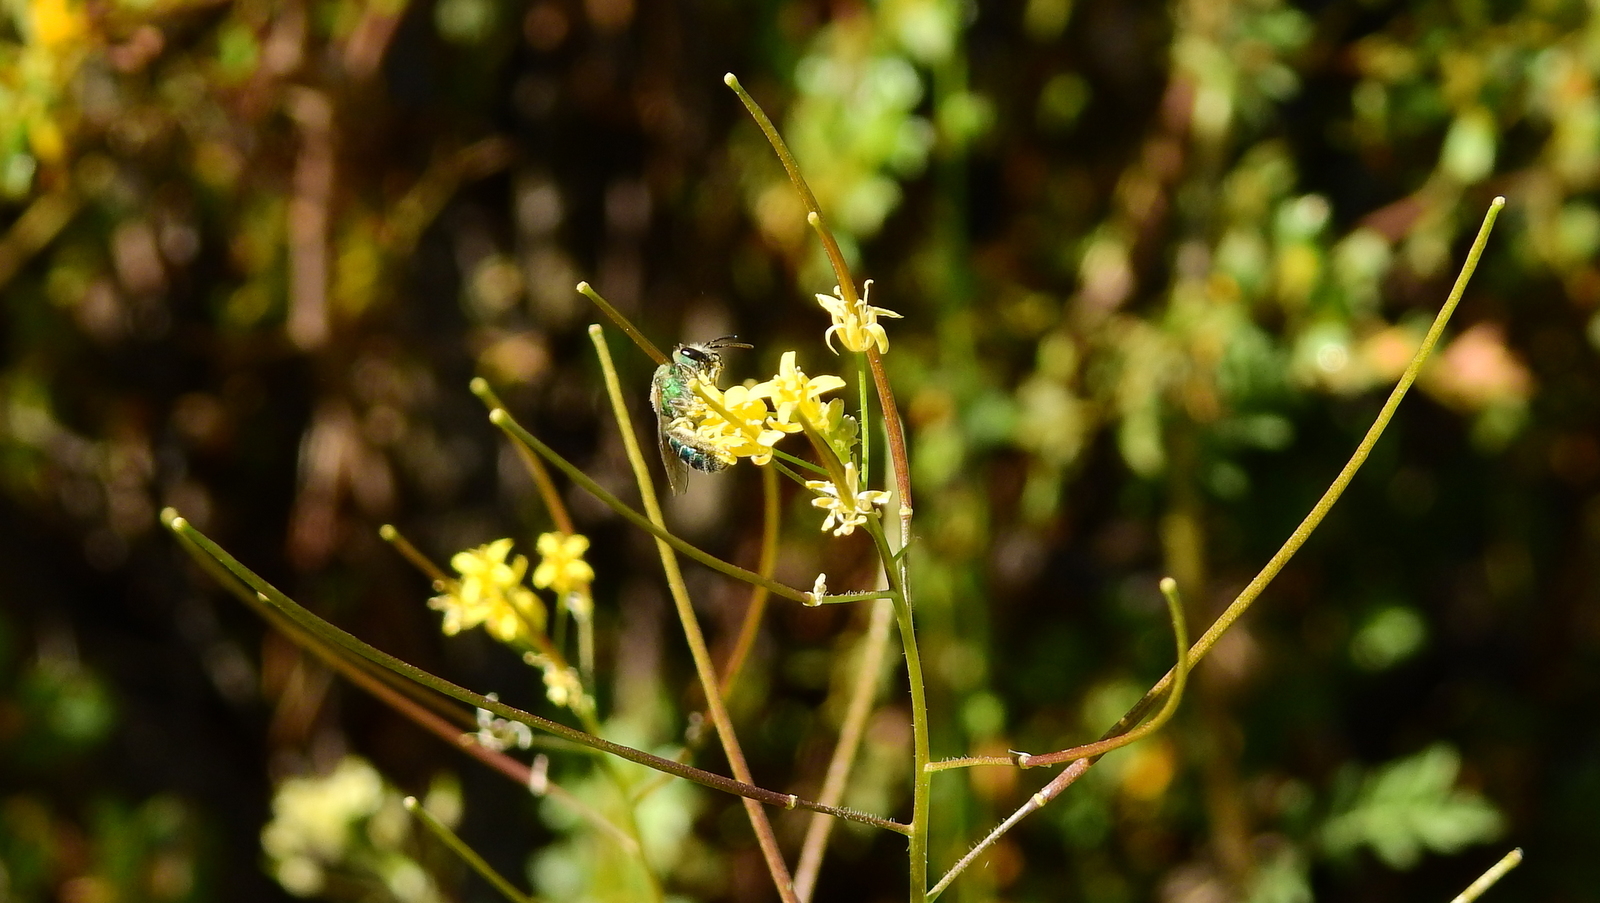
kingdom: Plantae
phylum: Tracheophyta
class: Magnoliopsida
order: Brassicales
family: Brassicaceae
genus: Sisymbrium
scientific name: Sisymbrium irio
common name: London rocket
